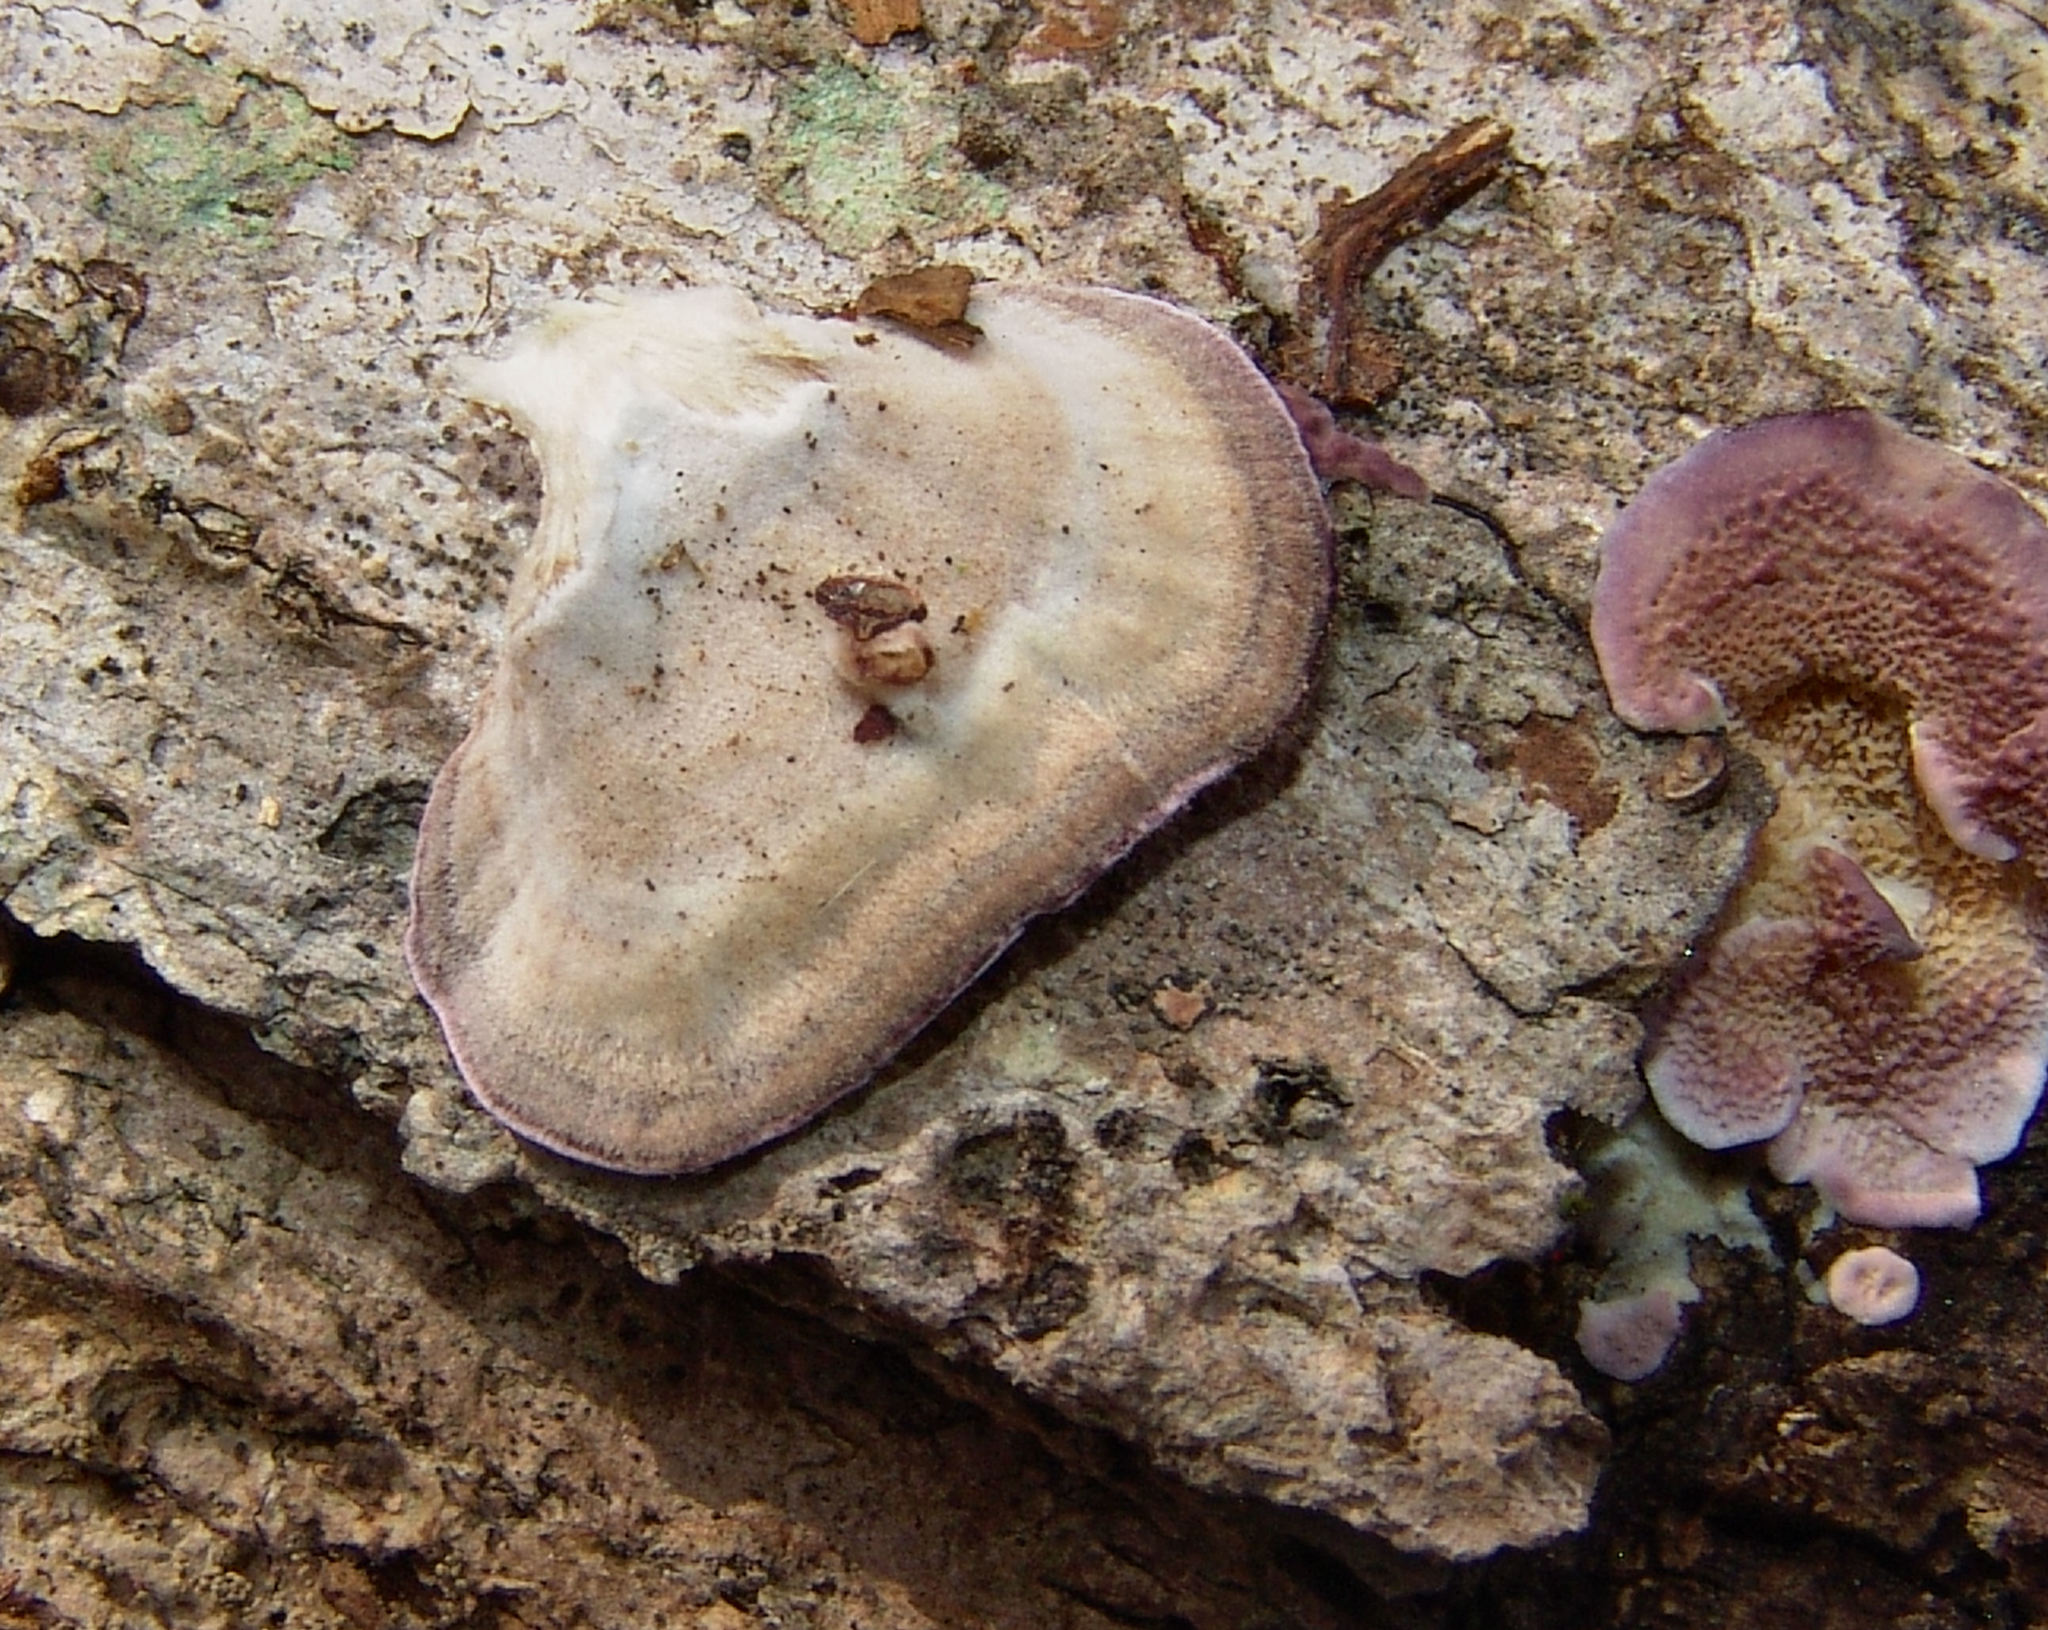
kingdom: Fungi
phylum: Basidiomycota
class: Agaricomycetes
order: Hymenochaetales
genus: Trichaptum
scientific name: Trichaptum biforme
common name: Violet-toothed polypore
